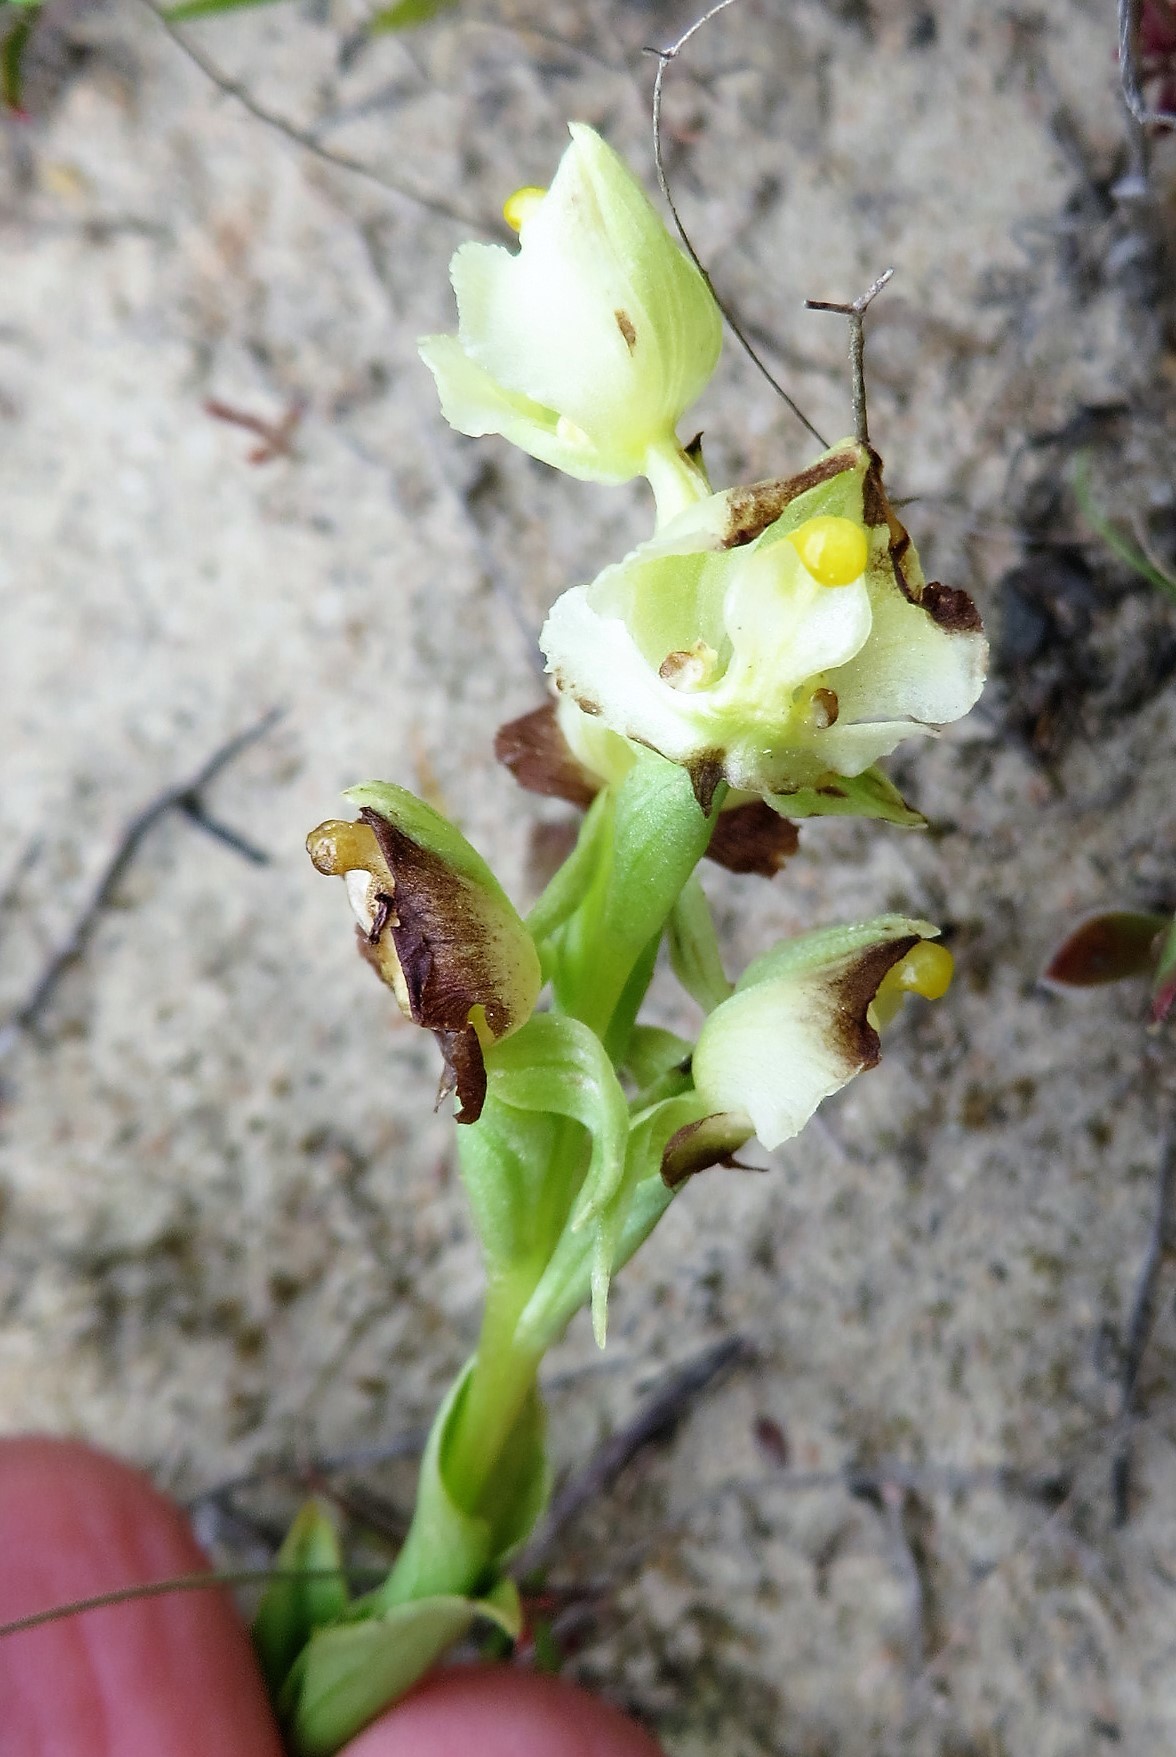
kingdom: Plantae
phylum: Tracheophyta
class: Liliopsida
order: Asparagales
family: Orchidaceae
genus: Pterygodium
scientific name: Pterygodium alatum
